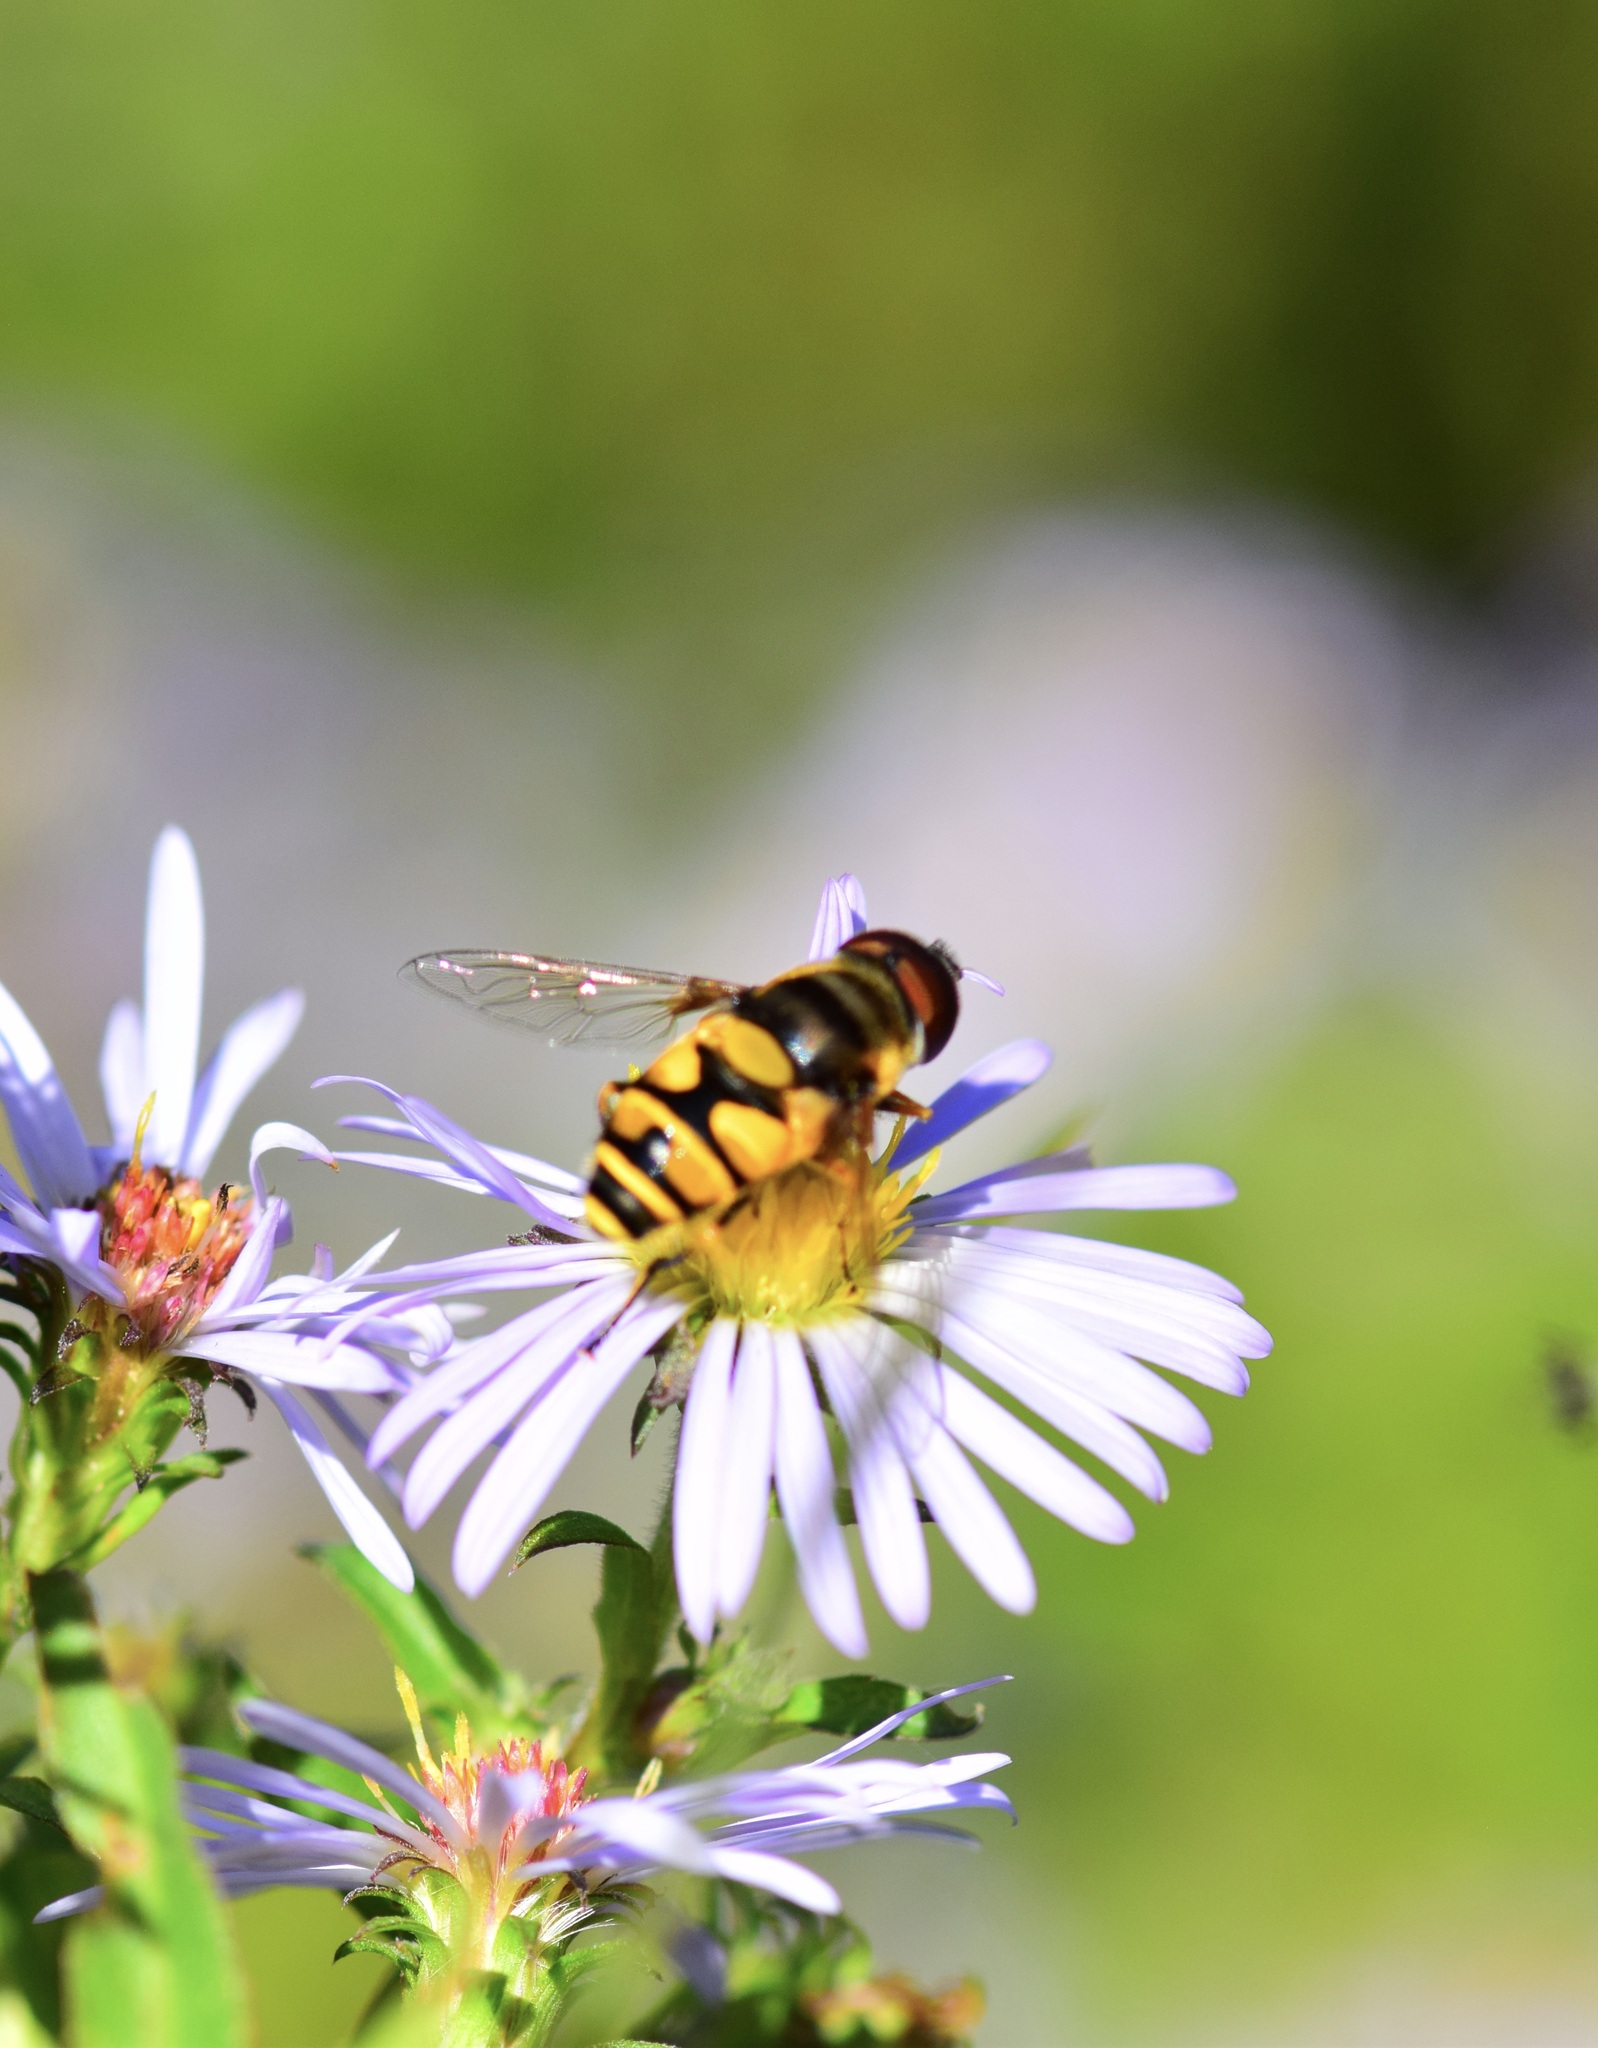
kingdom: Animalia
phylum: Arthropoda
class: Insecta
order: Diptera
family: Syrphidae
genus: Eristalis
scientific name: Eristalis transversa
